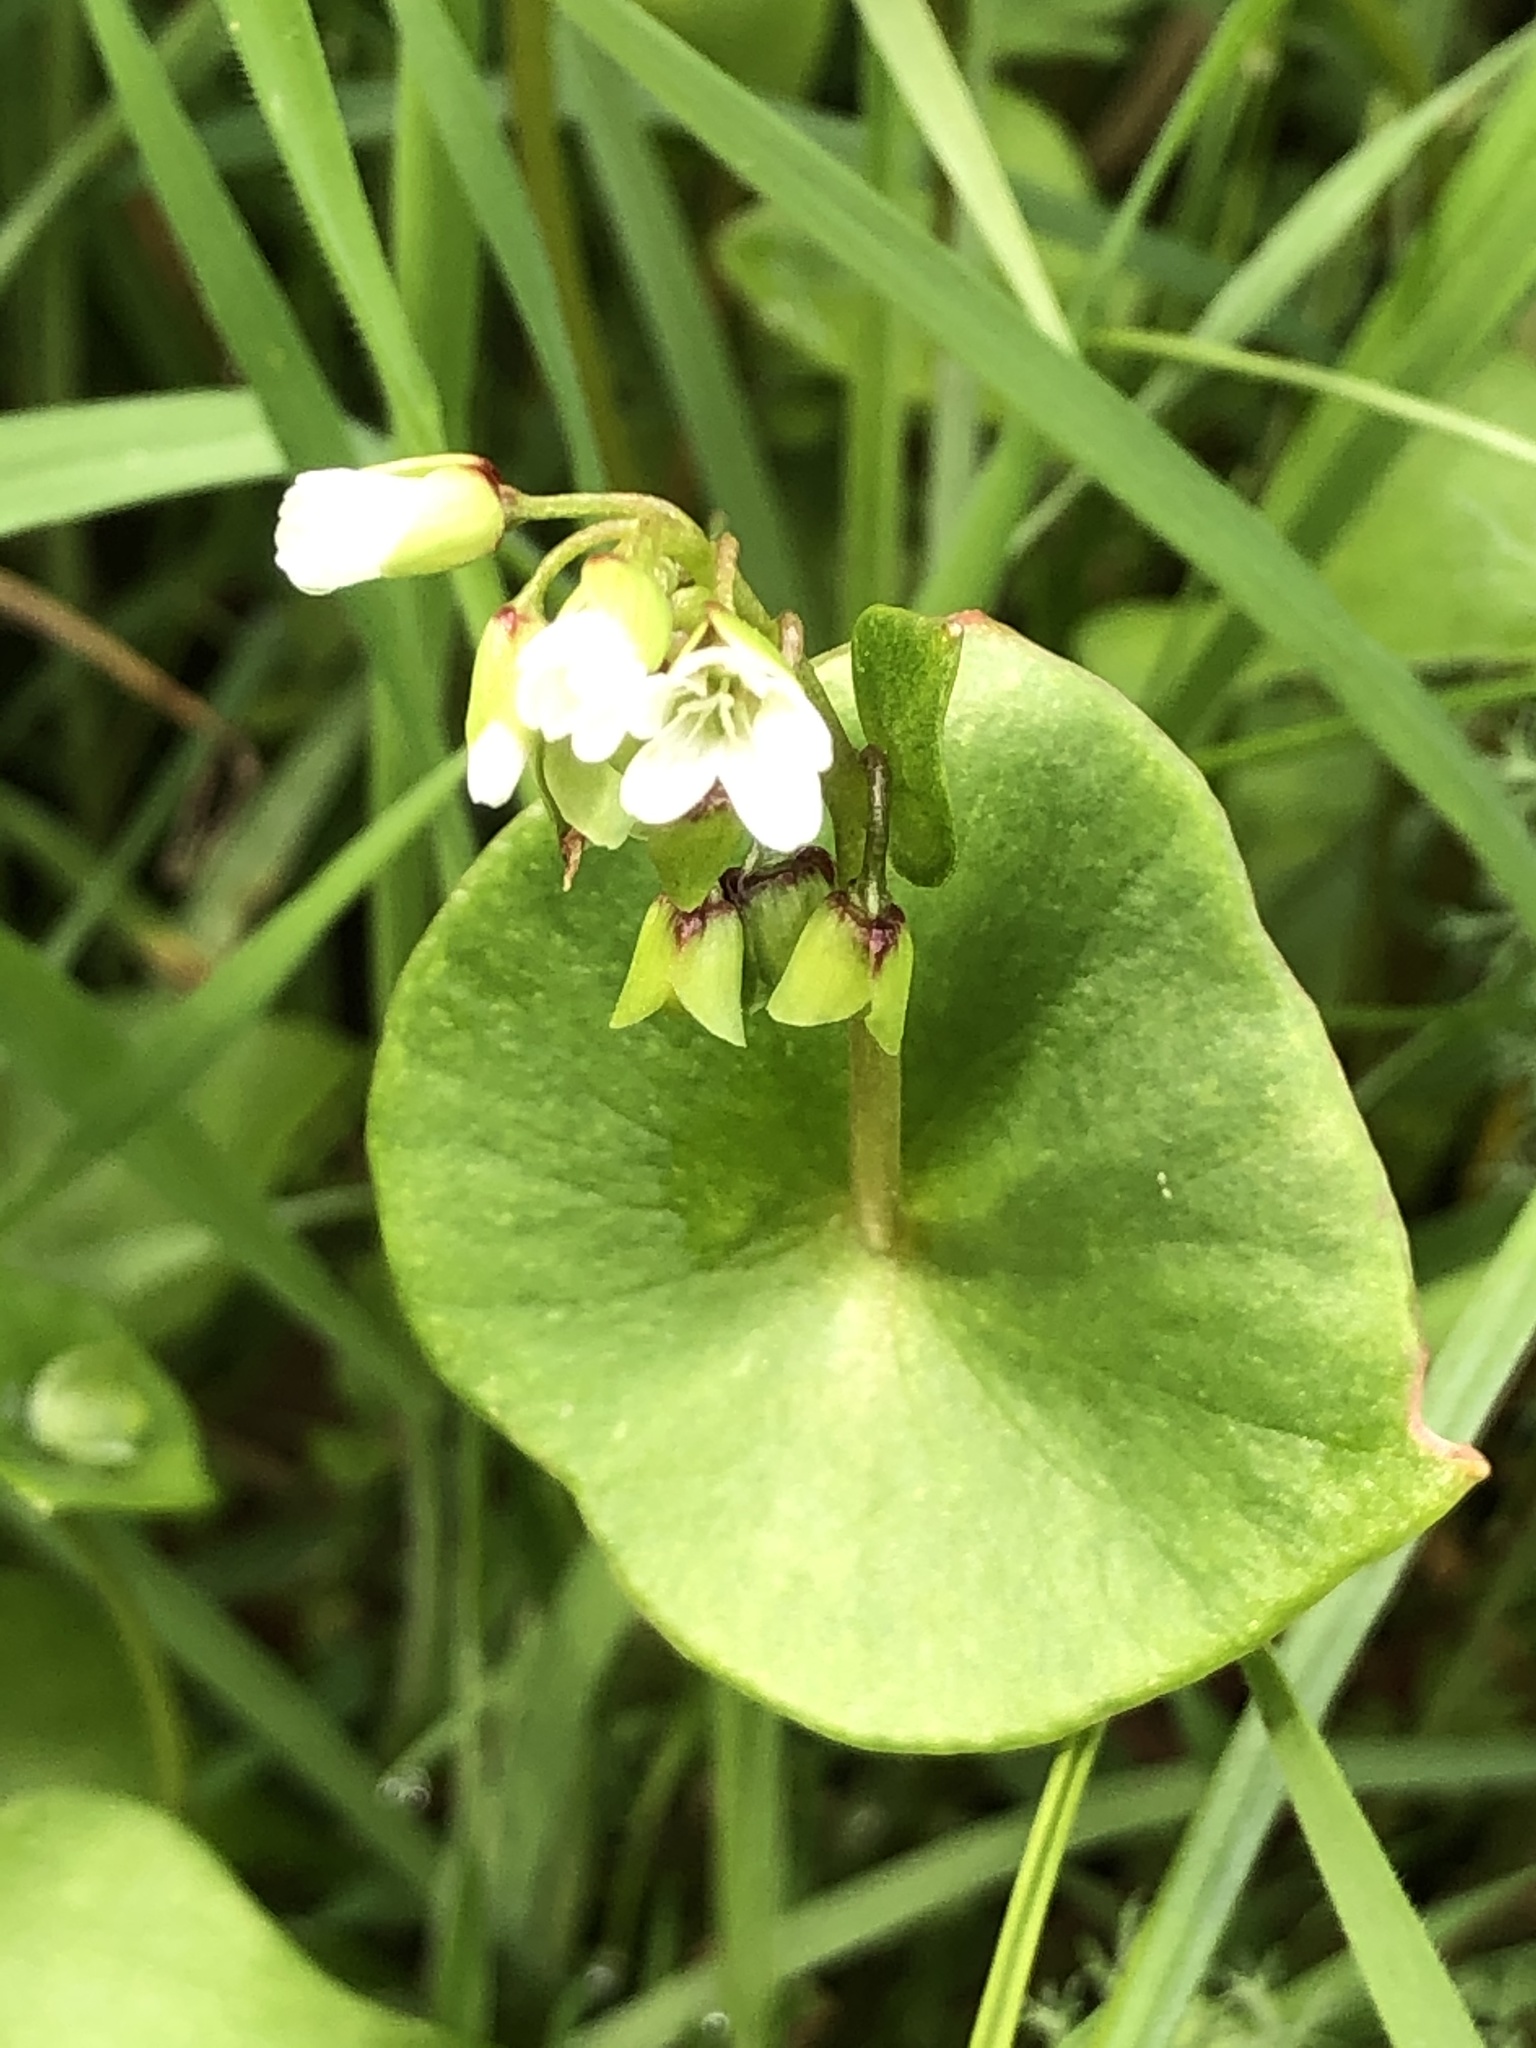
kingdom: Plantae
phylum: Tracheophyta
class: Magnoliopsida
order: Caryophyllales
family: Montiaceae
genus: Claytonia
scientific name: Claytonia perfoliata
